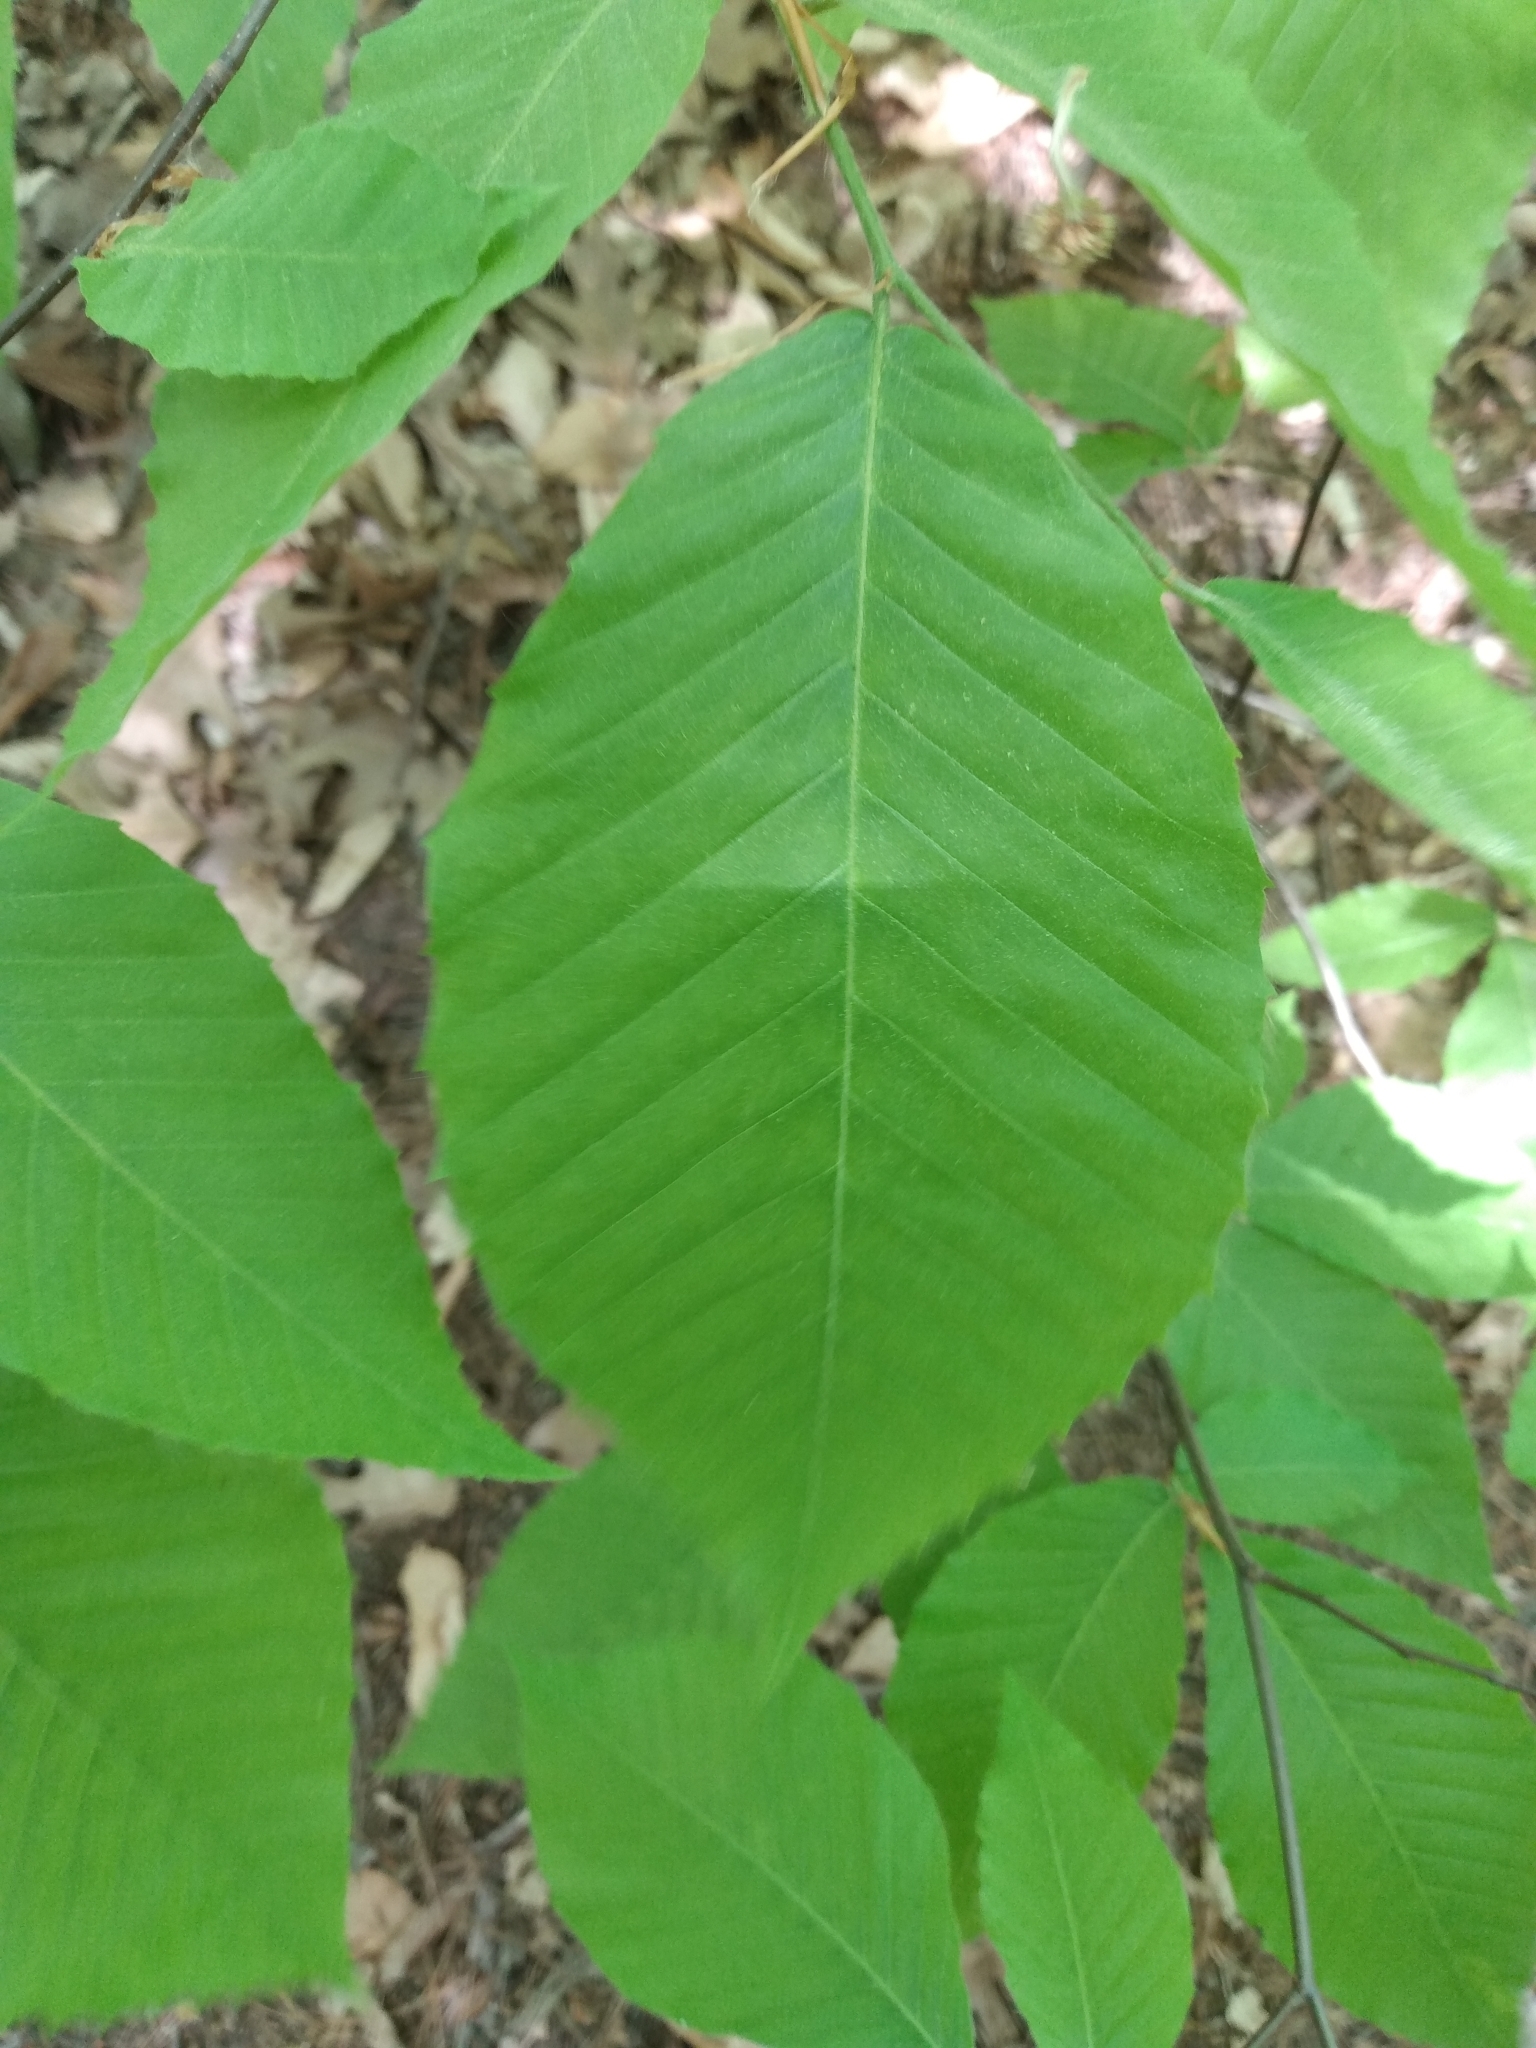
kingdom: Plantae
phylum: Tracheophyta
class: Magnoliopsida
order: Fagales
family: Fagaceae
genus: Fagus
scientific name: Fagus grandifolia
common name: American beech
